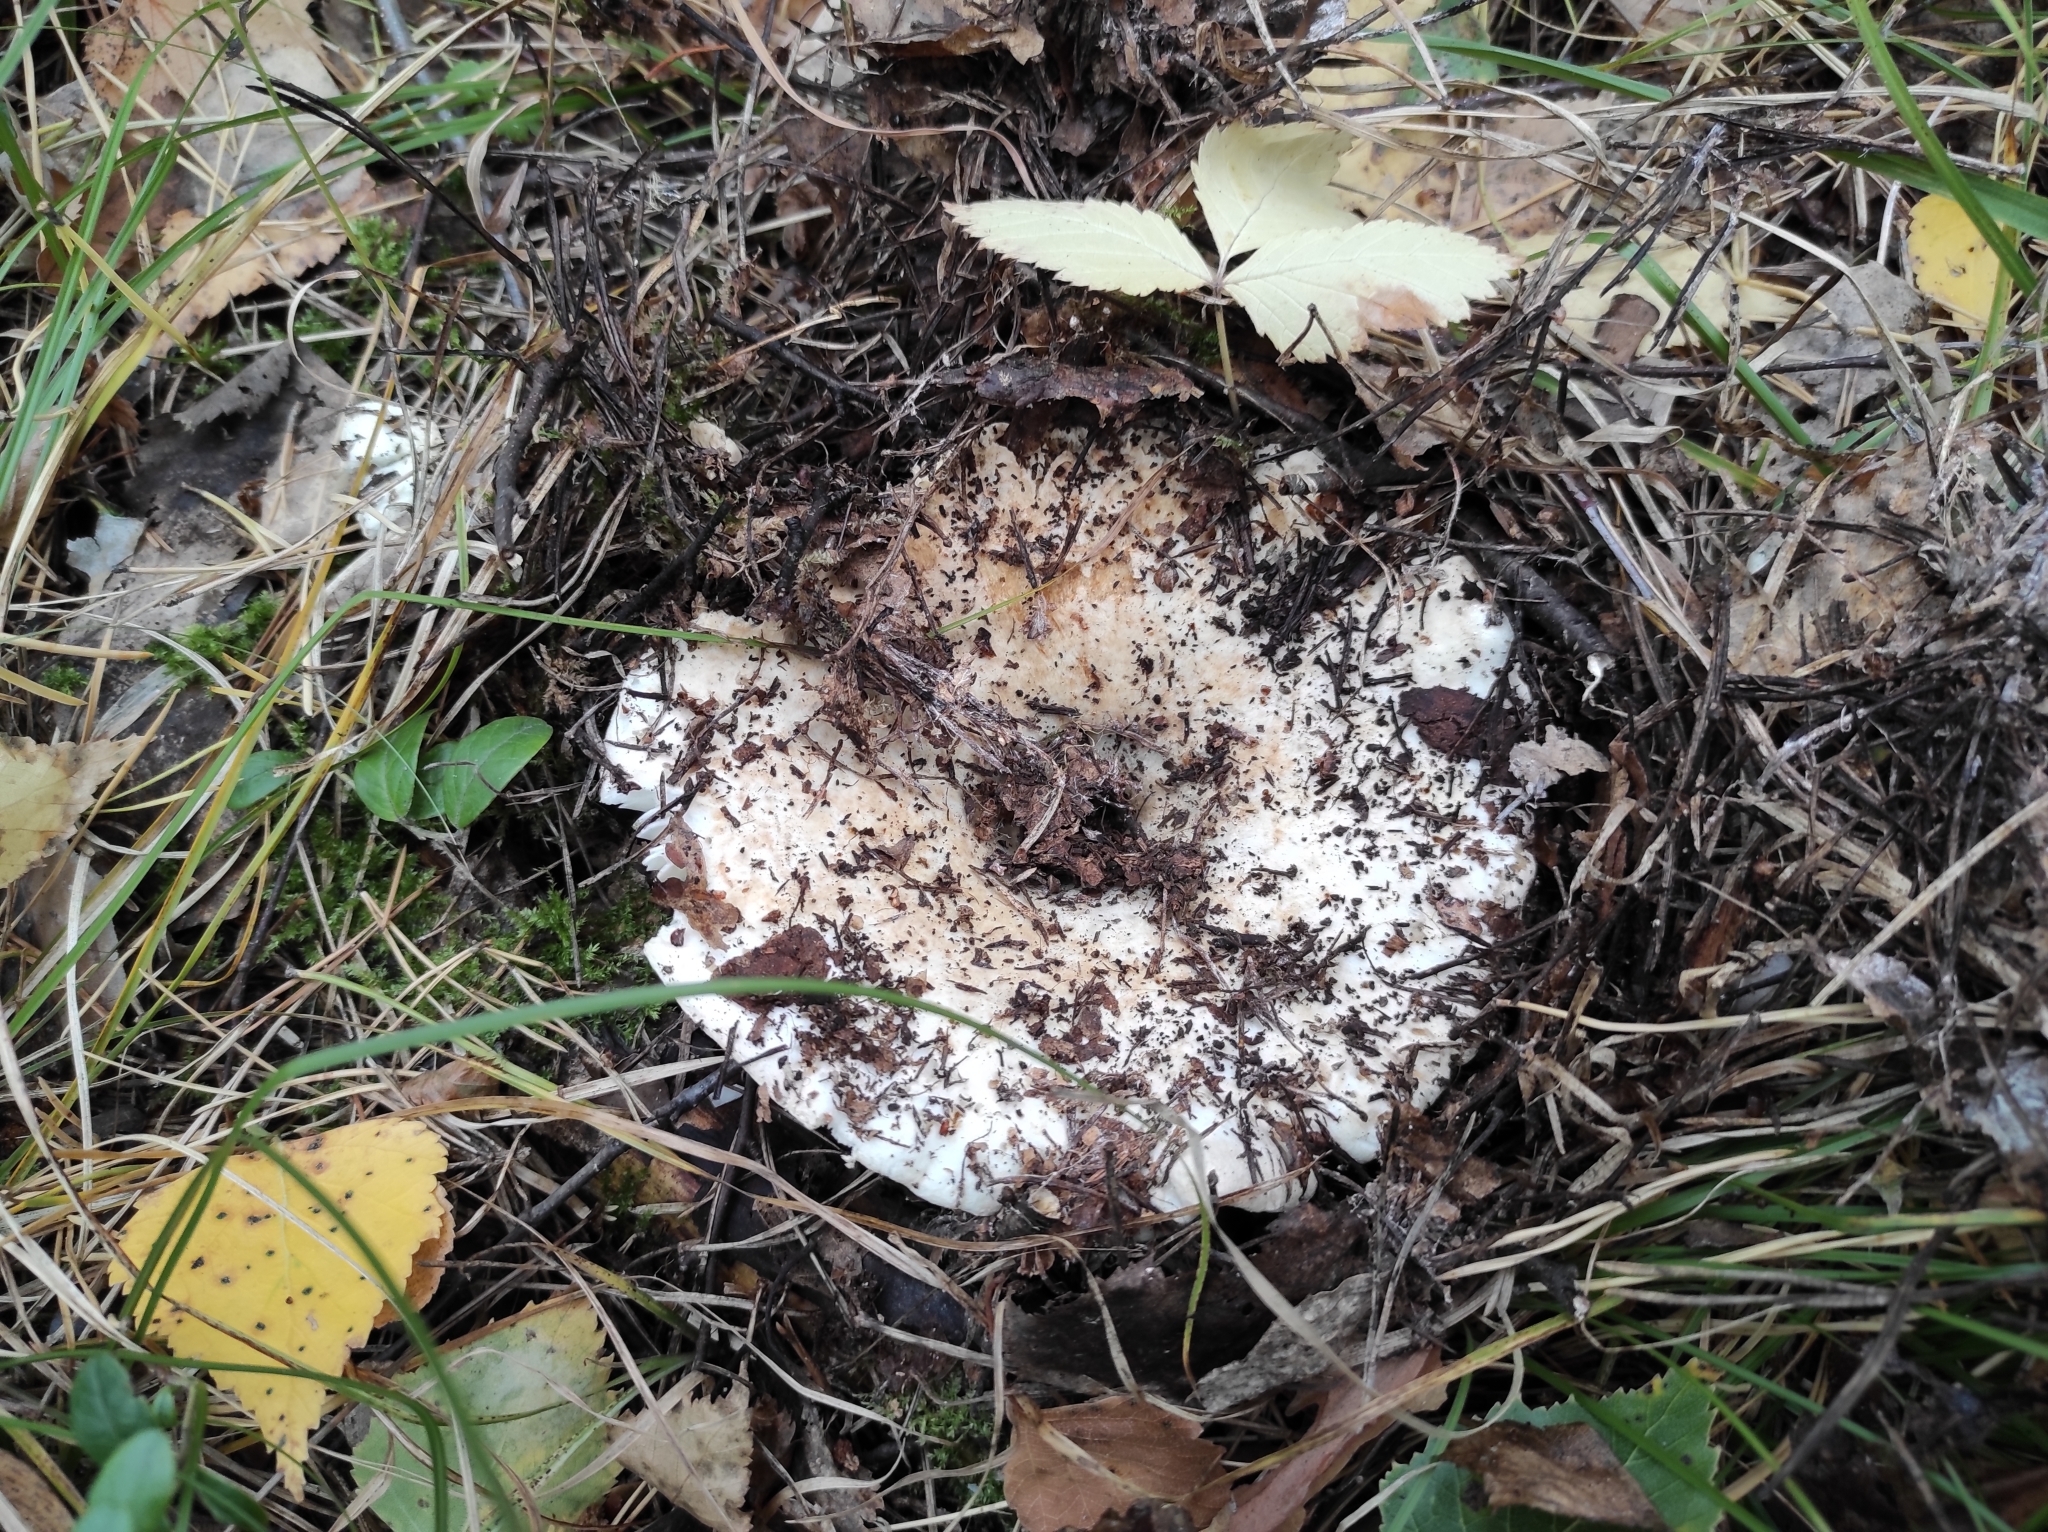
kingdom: Fungi
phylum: Basidiomycota
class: Agaricomycetes
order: Russulales
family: Russulaceae
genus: Russula
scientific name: Russula delica
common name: Milk white brittlegill
